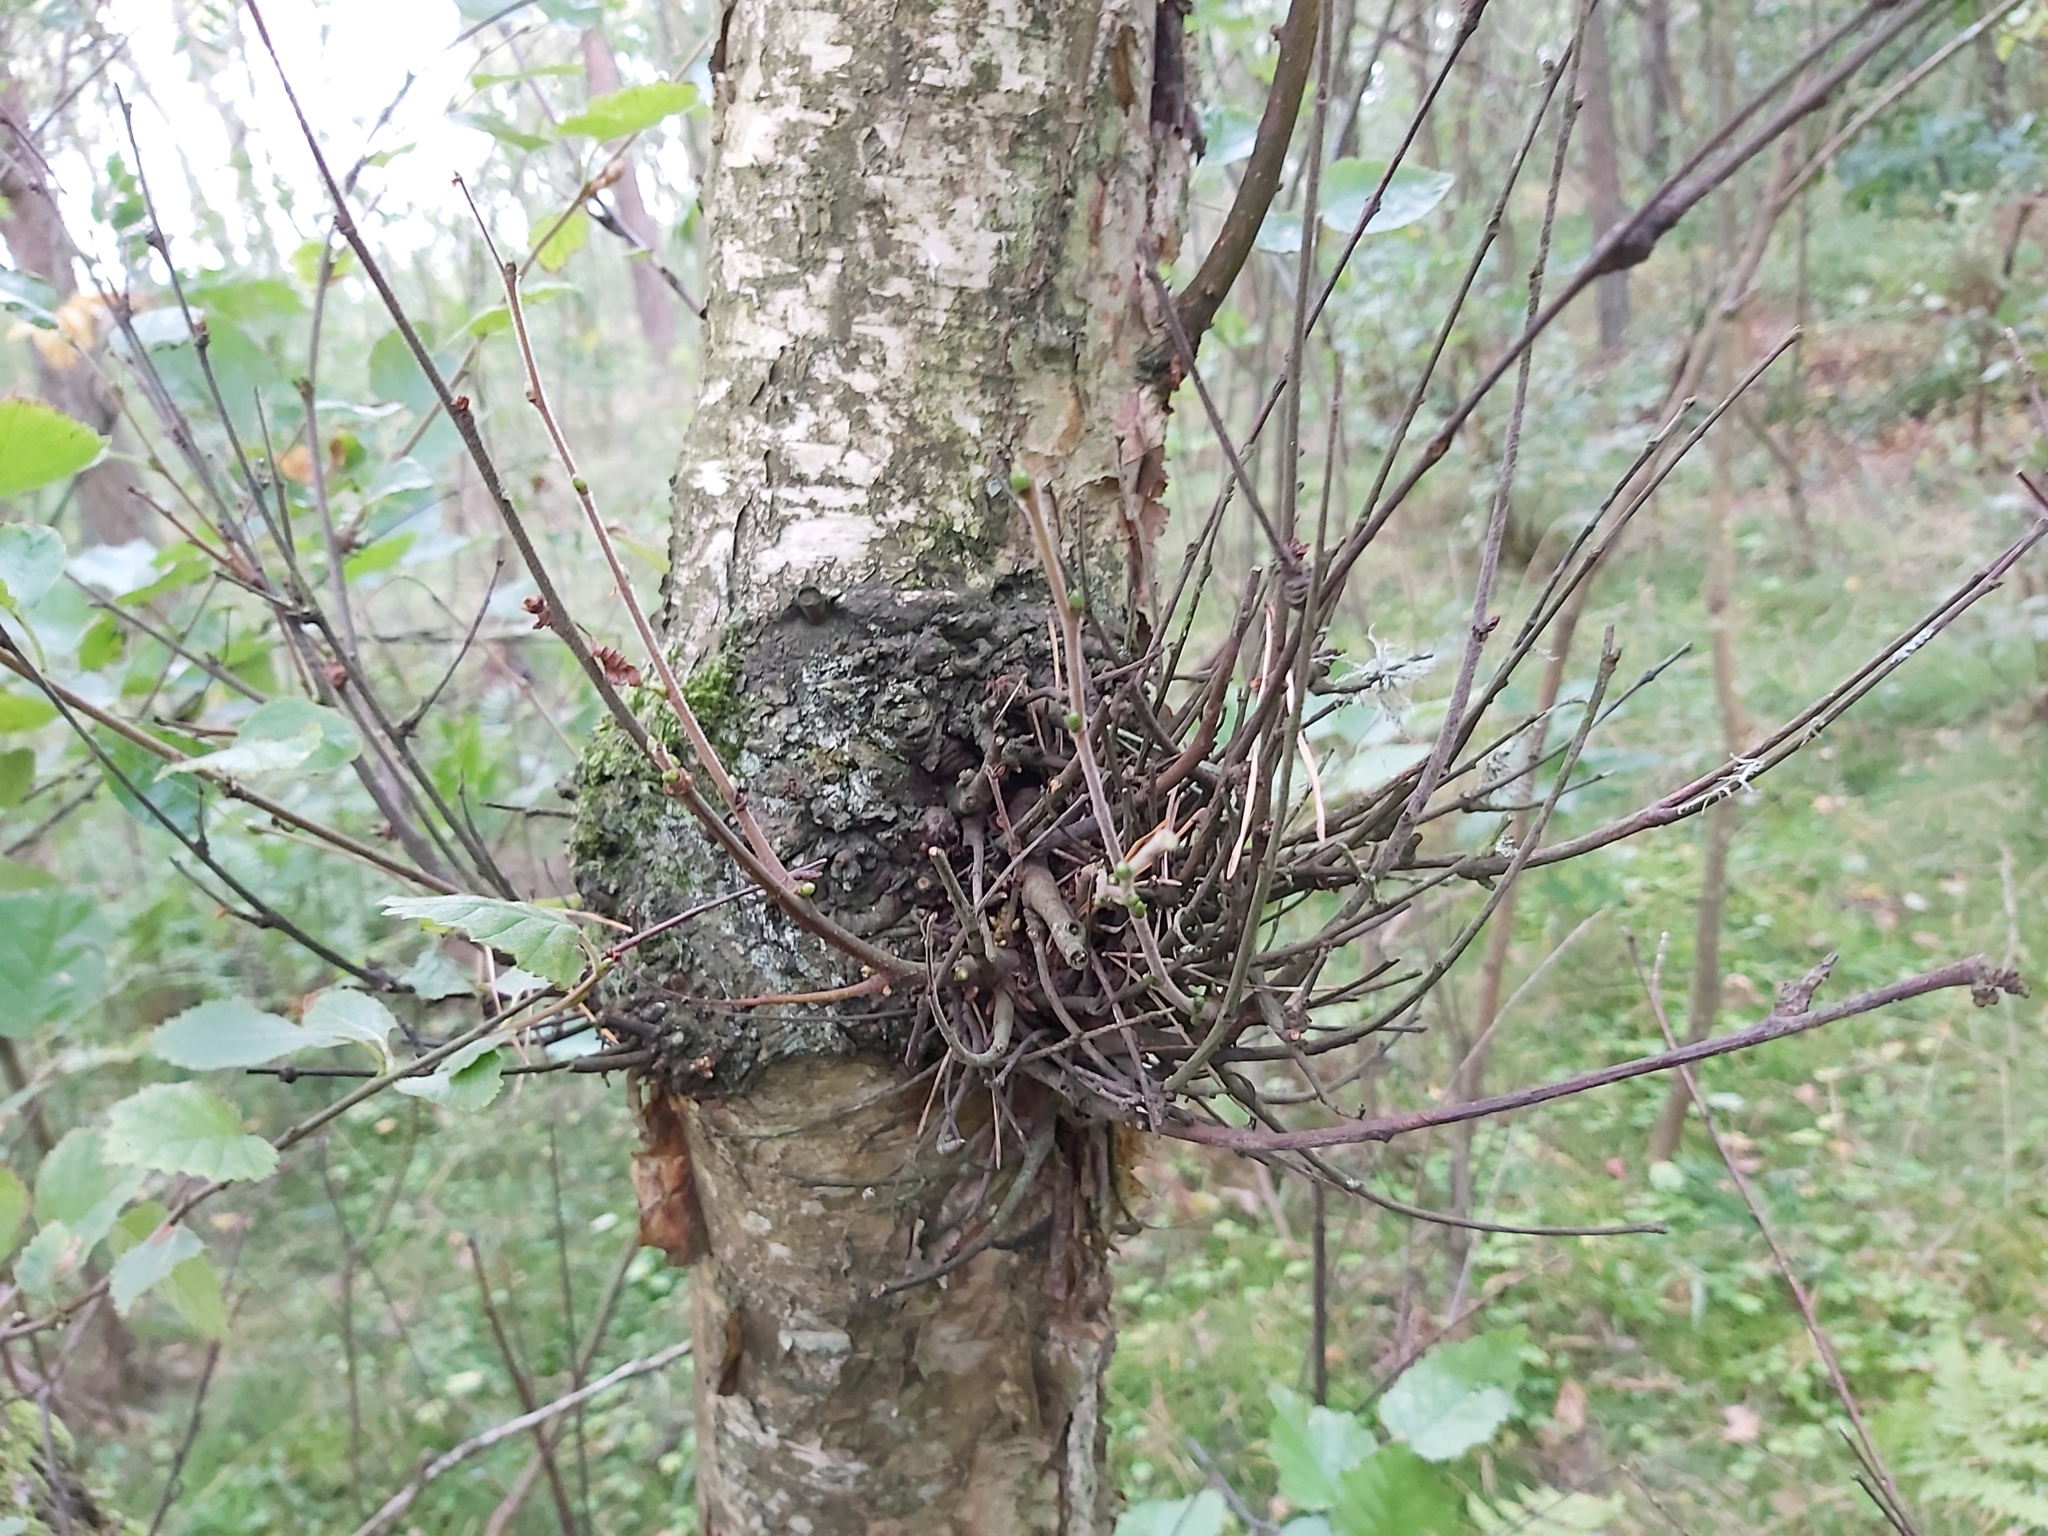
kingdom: Fungi
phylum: Ascomycota
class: Taphrinomycetes
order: Taphrinales
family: Taphrinaceae
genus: Taphrina
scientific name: Taphrina betulina
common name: Birch besom
